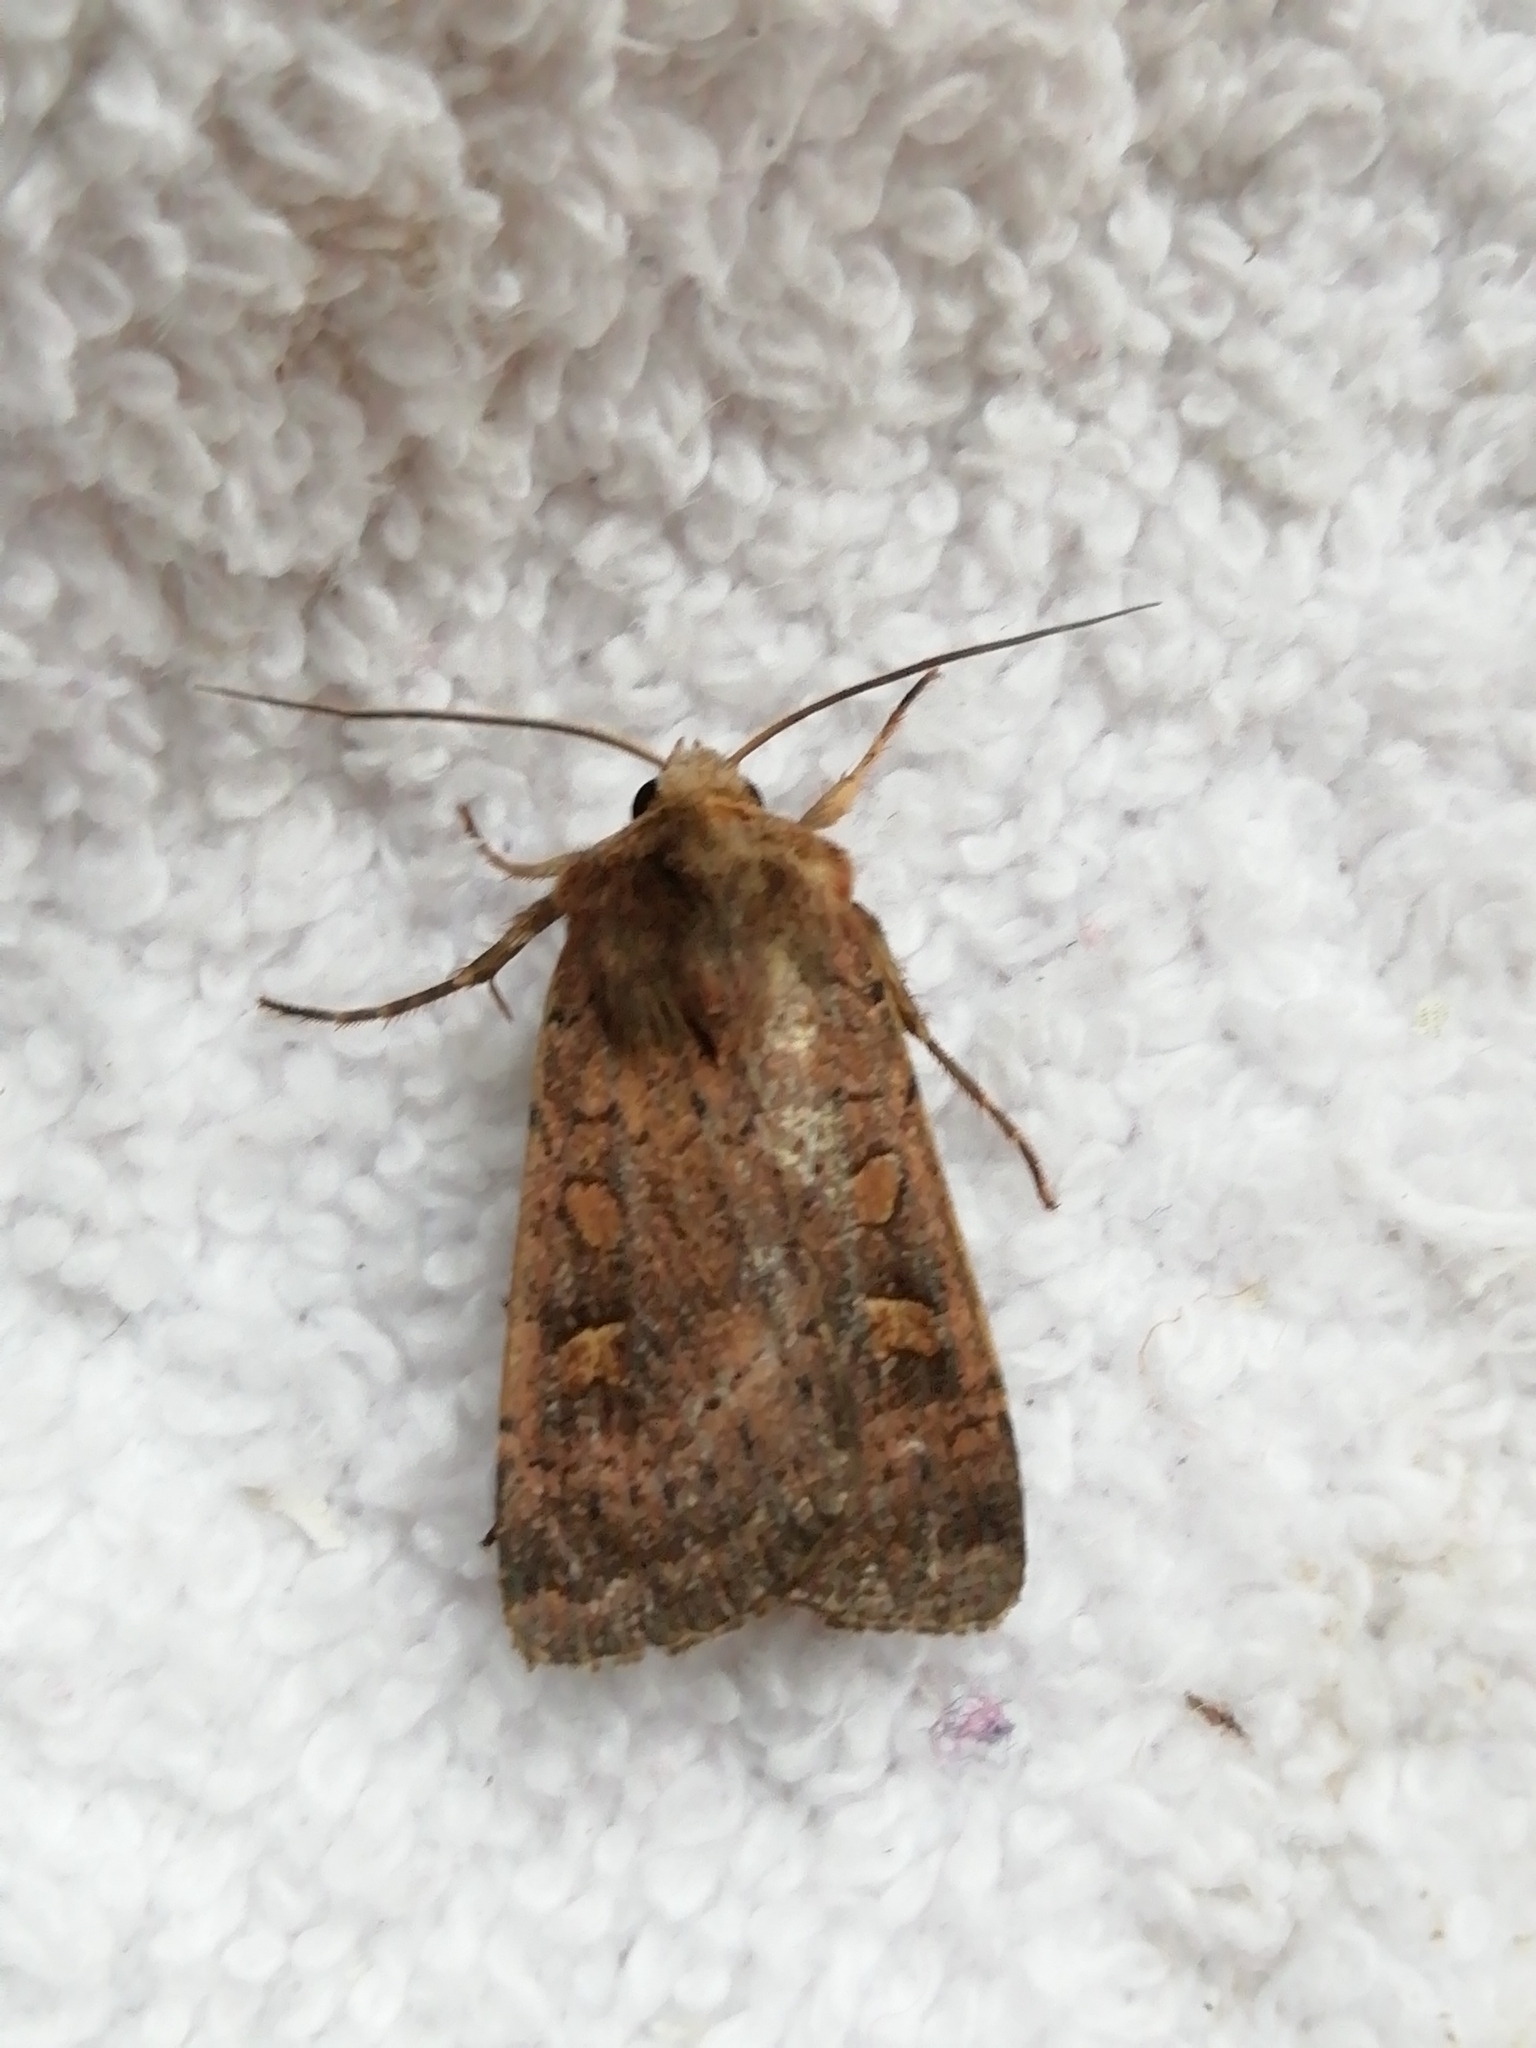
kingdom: Animalia
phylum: Arthropoda
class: Insecta
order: Lepidoptera
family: Noctuidae
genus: Xestia
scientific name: Xestia xanthographa
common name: Square-spot rustic
